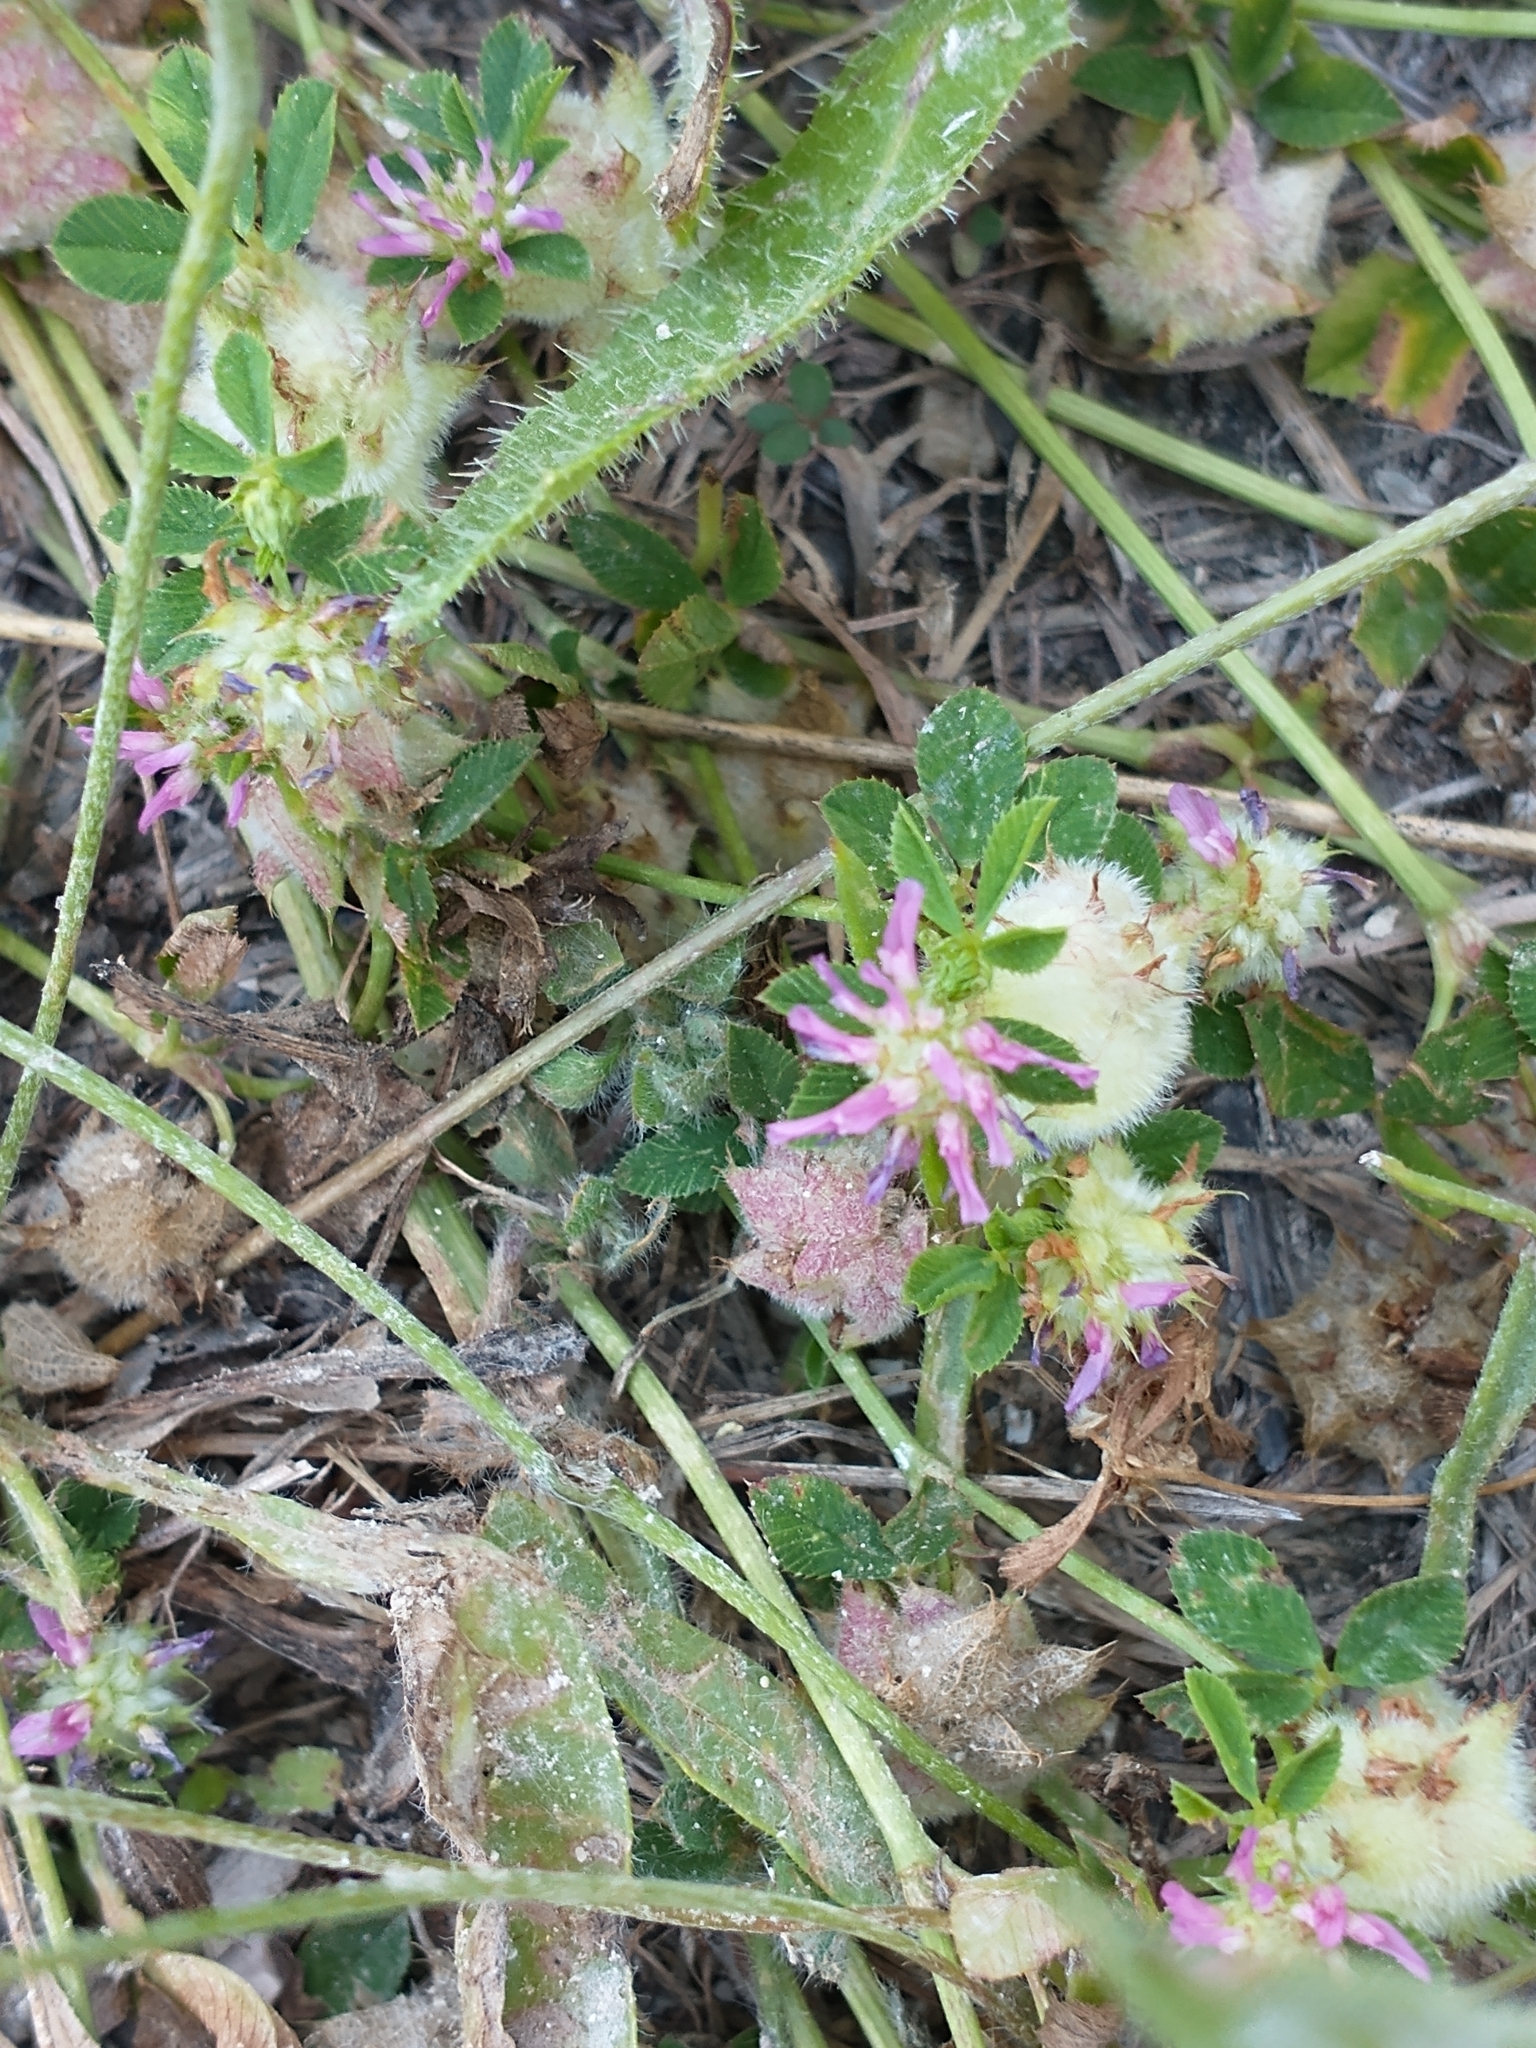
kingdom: Plantae
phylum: Tracheophyta
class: Magnoliopsida
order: Fabales
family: Fabaceae
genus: Trifolium
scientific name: Trifolium resupinatum
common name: Reversed clover
